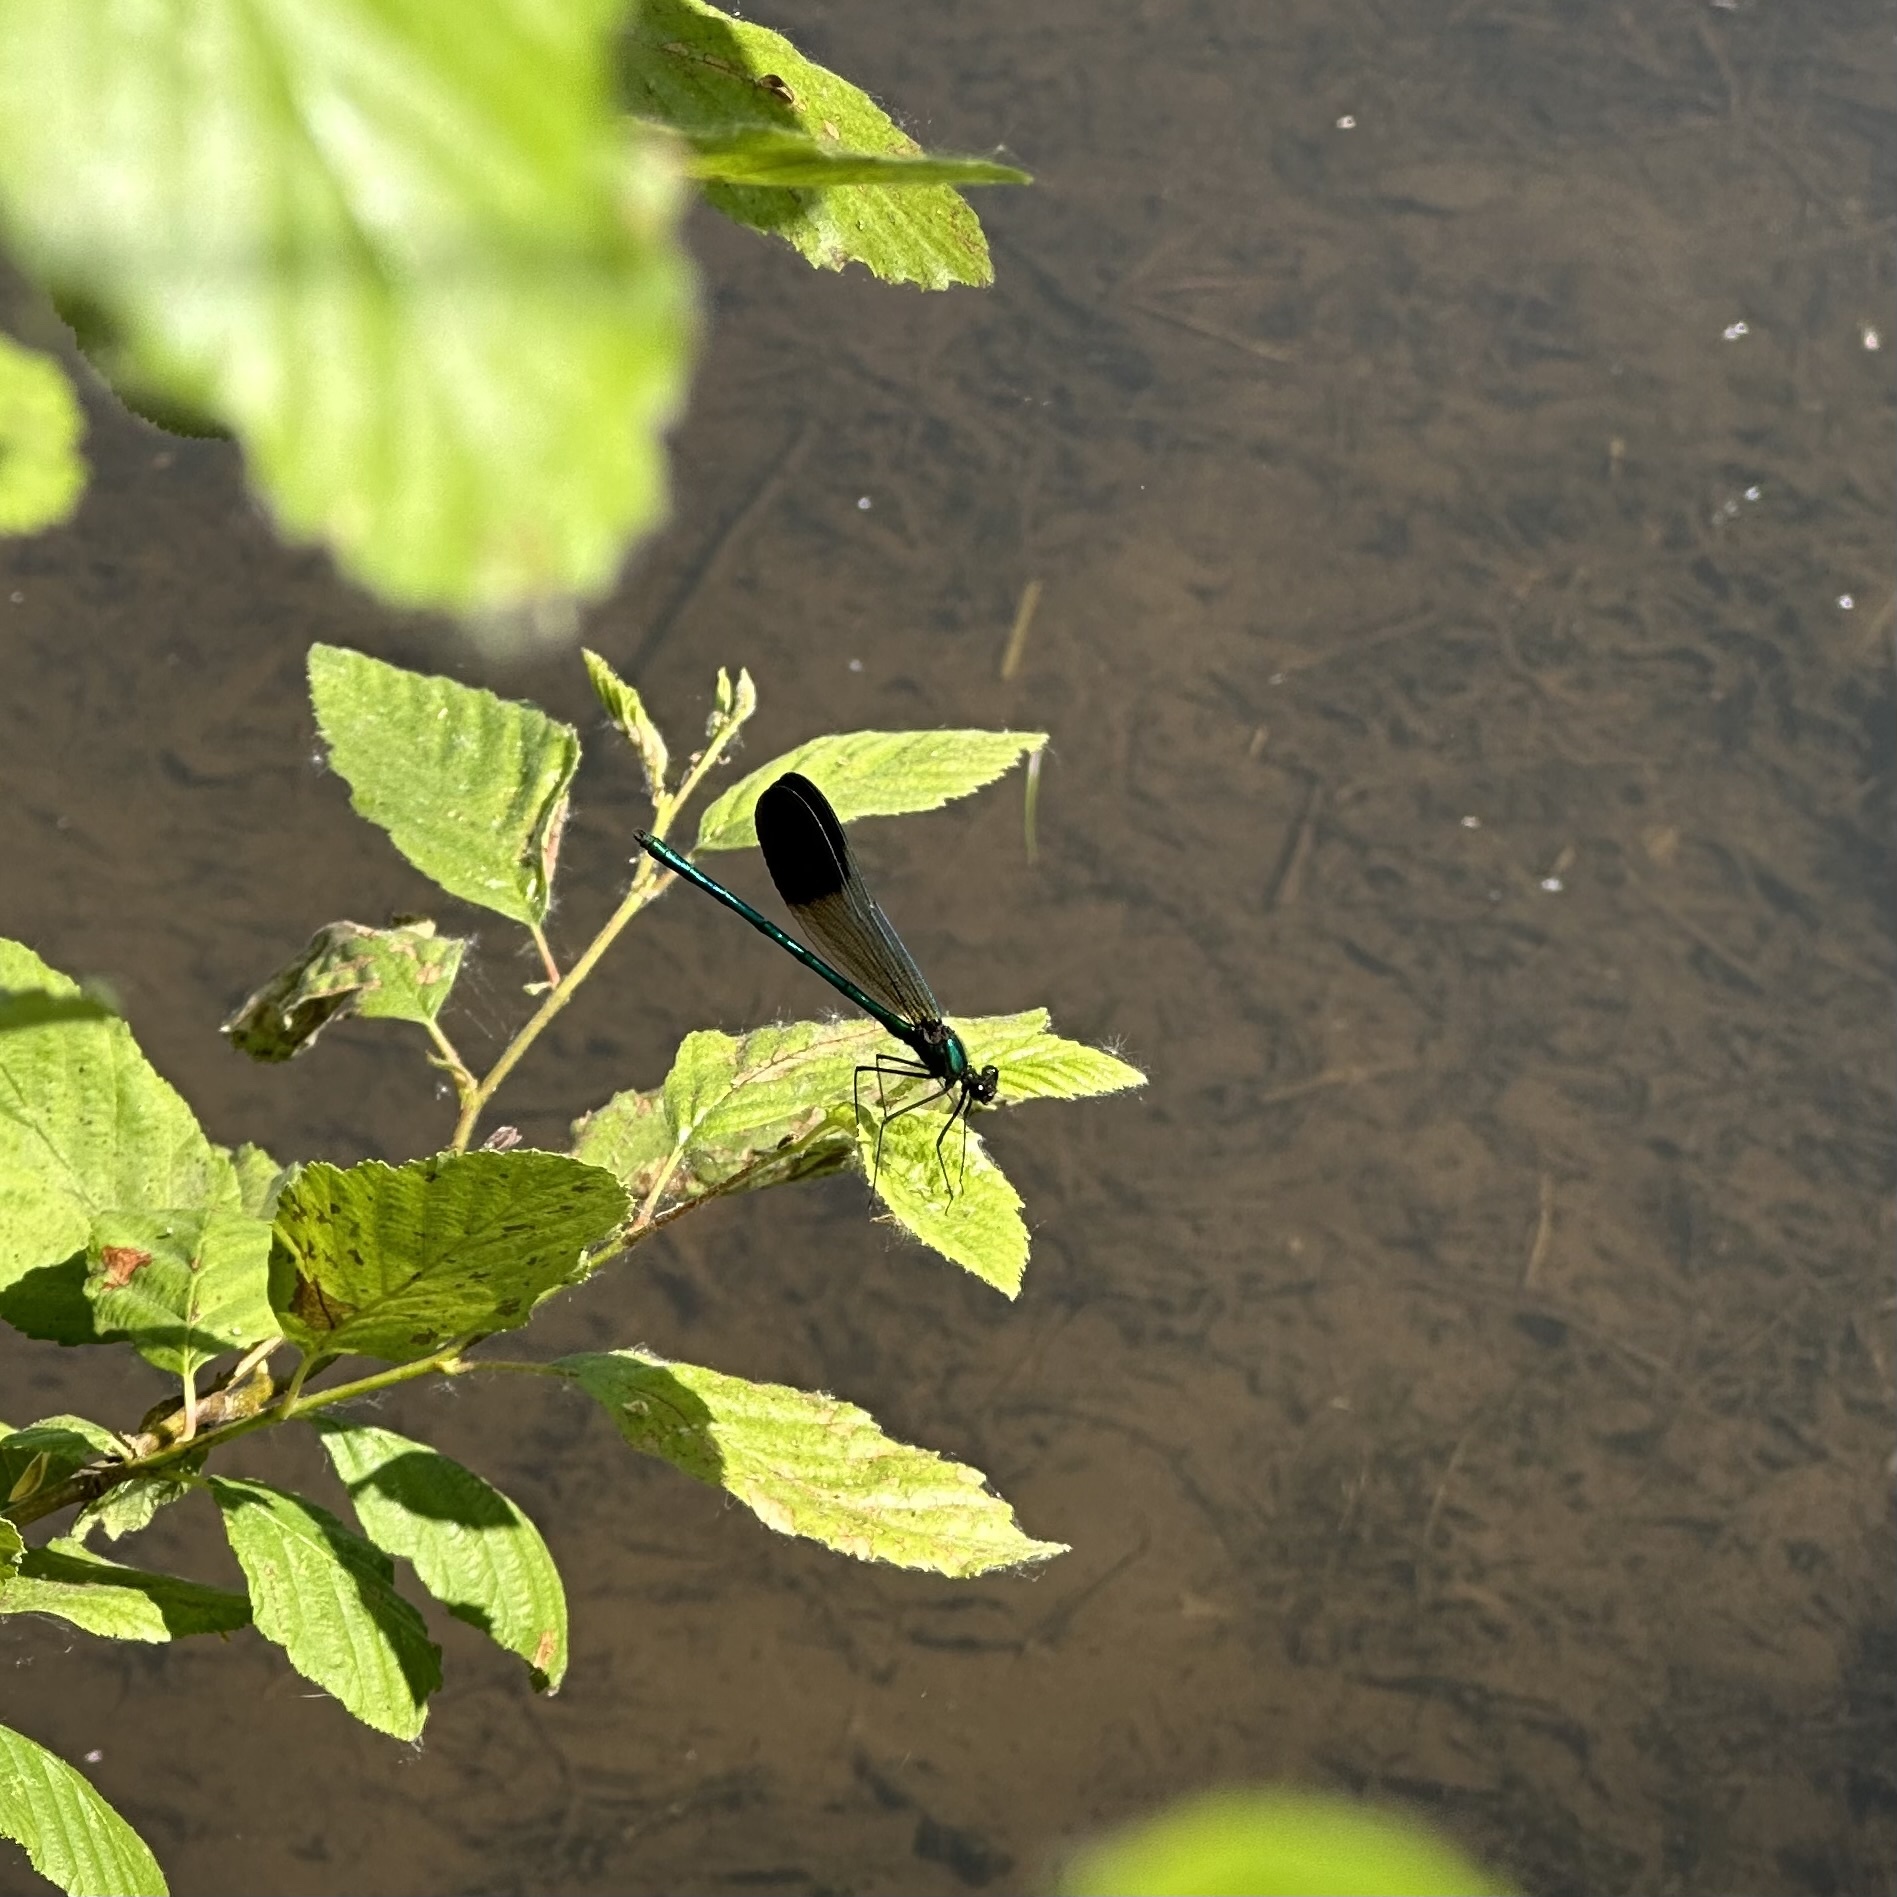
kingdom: Animalia
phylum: Arthropoda
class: Insecta
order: Odonata
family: Calopterygidae
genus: Calopteryx
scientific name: Calopteryx aequabilis
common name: River jewelwing
